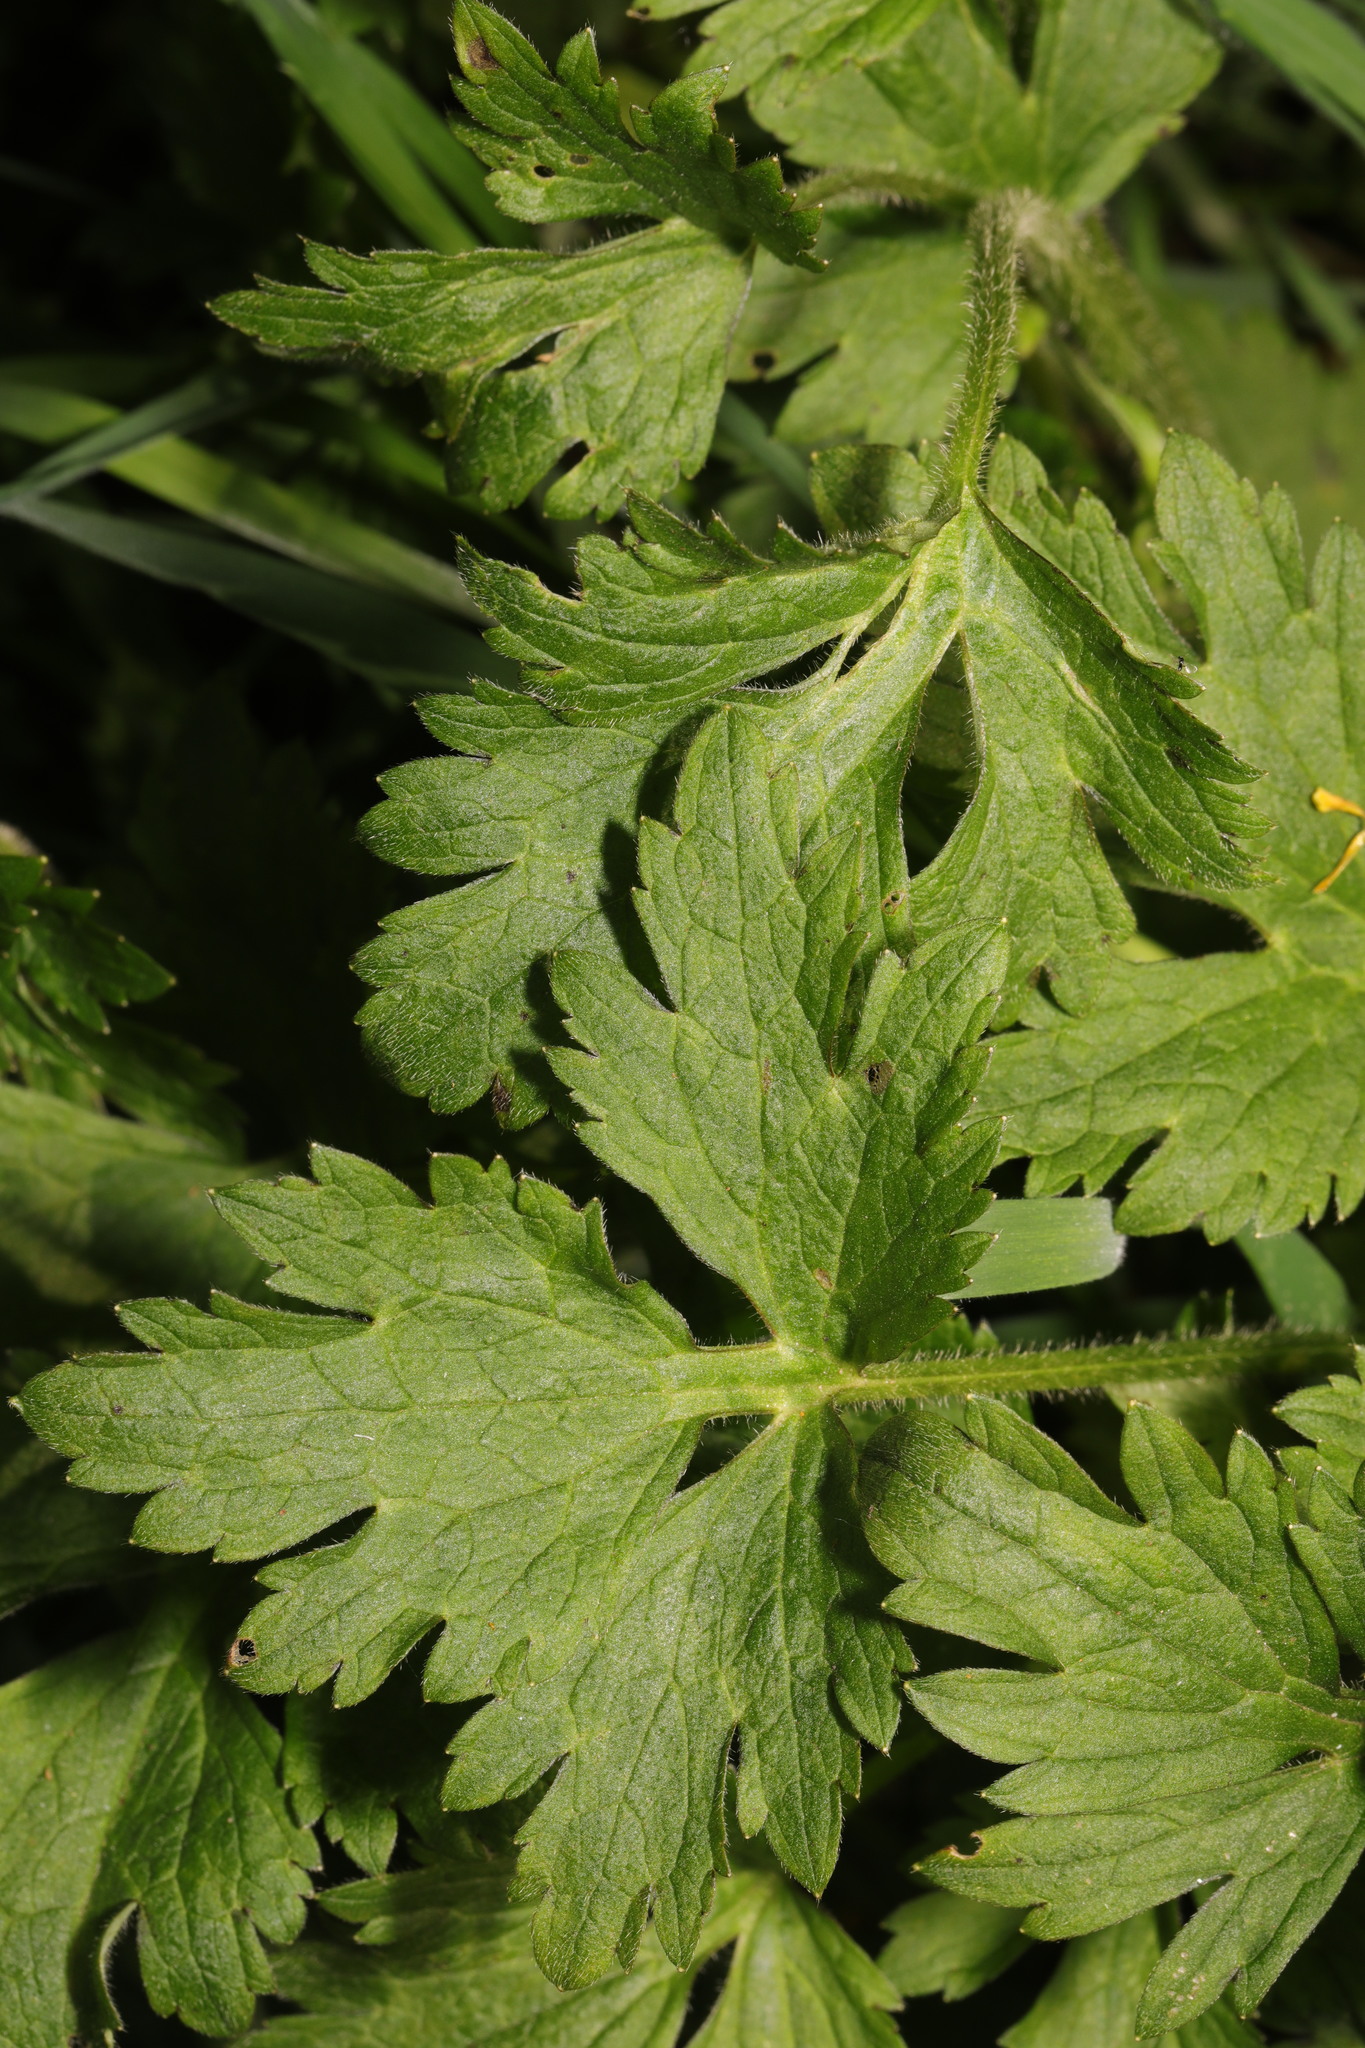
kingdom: Plantae
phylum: Tracheophyta
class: Magnoliopsida
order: Ranunculales
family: Ranunculaceae
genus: Ranunculus
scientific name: Ranunculus repens
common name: Creeping buttercup
